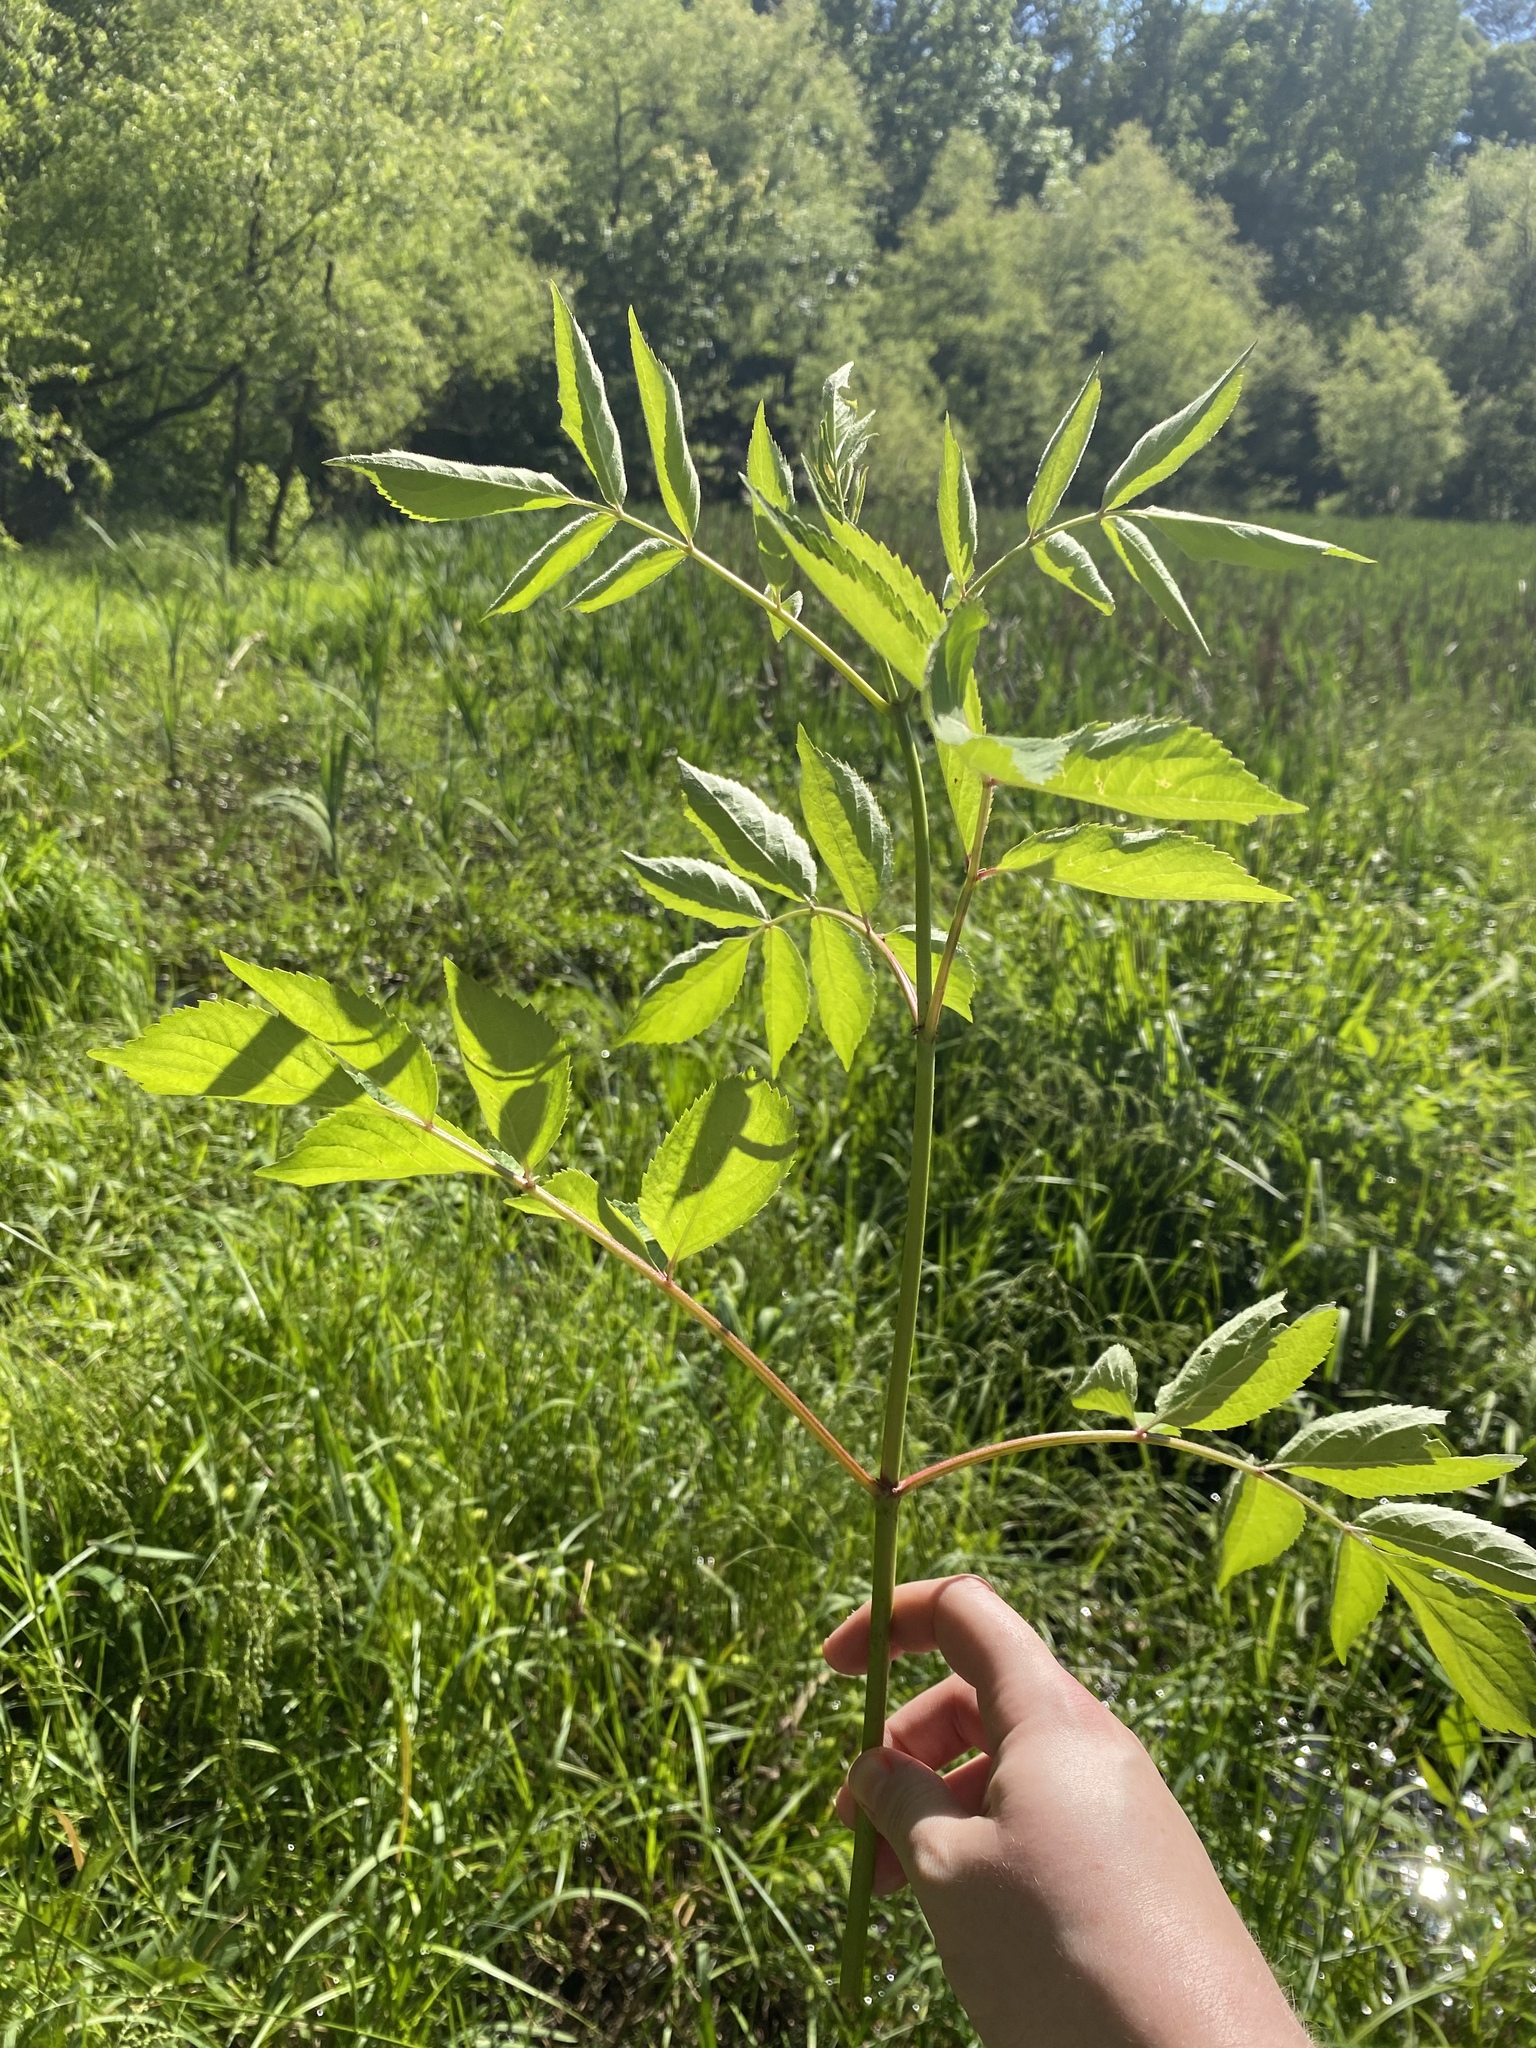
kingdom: Plantae
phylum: Tracheophyta
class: Magnoliopsida
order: Dipsacales
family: Viburnaceae
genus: Sambucus
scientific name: Sambucus canadensis
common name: American elder
